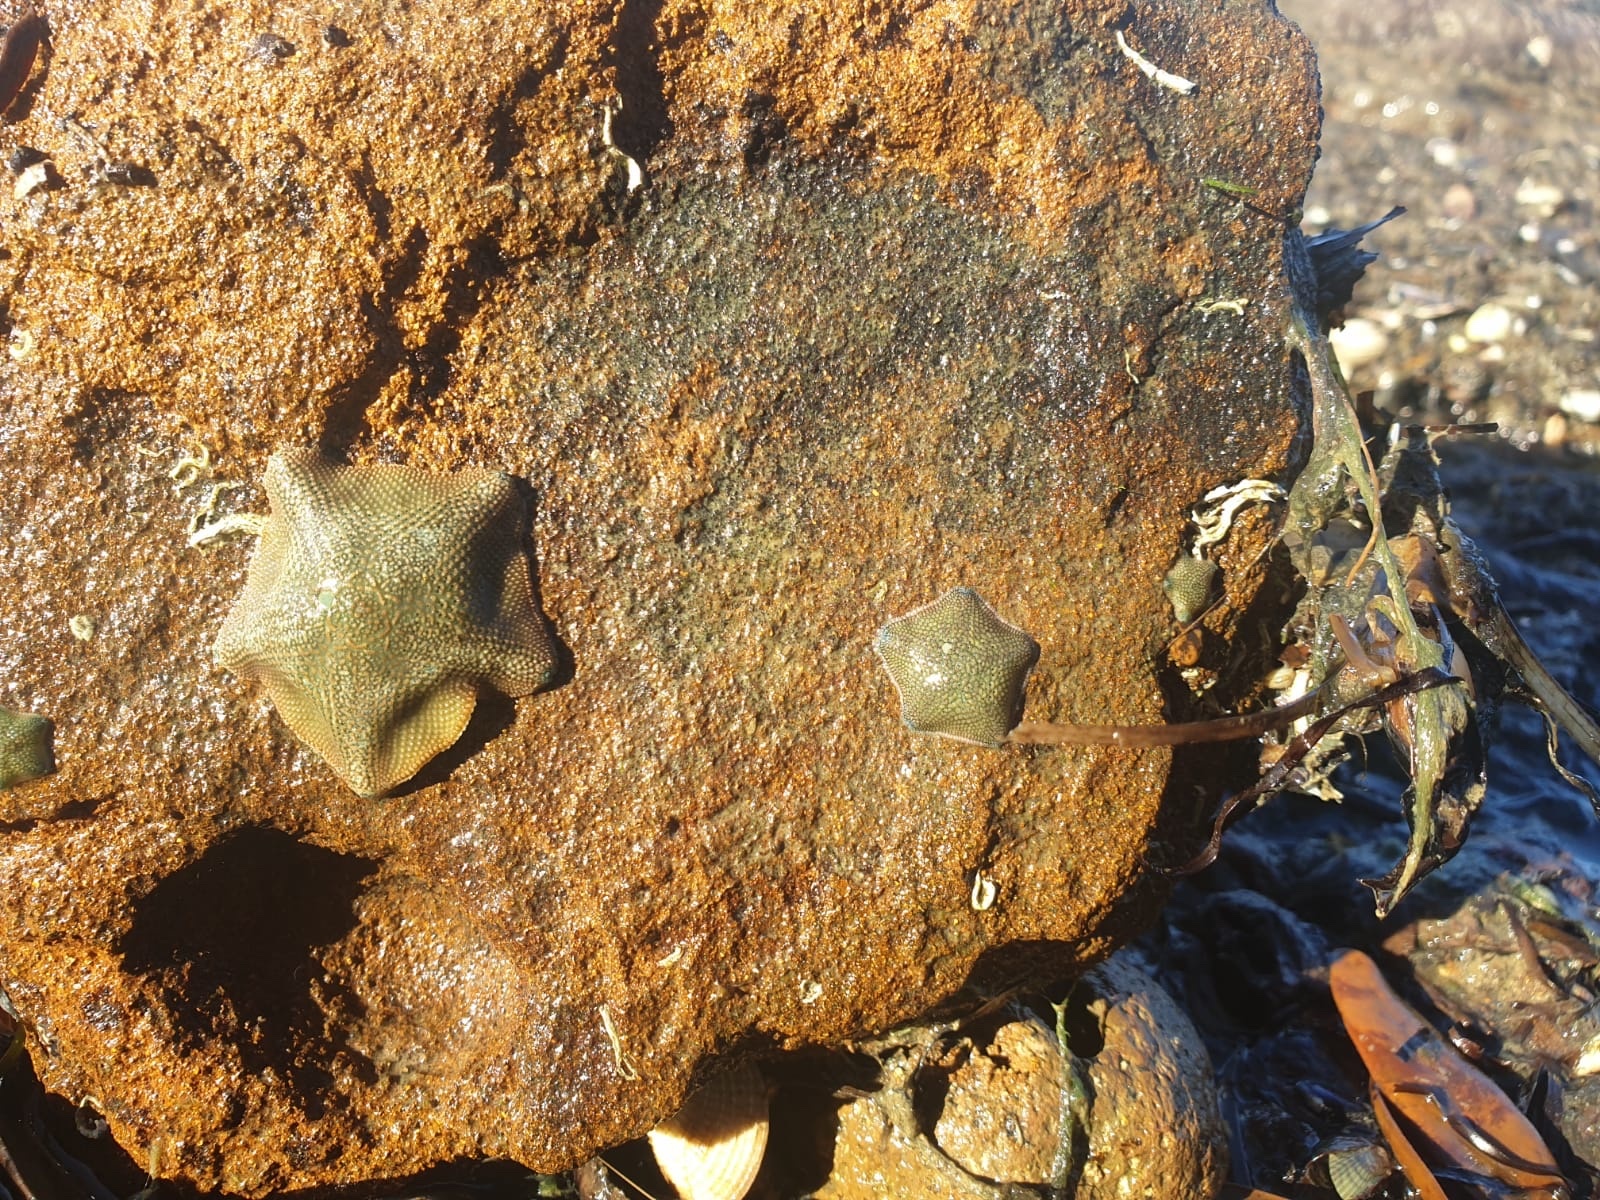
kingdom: Animalia
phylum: Echinodermata
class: Asteroidea
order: Valvatida
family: Asterinidae
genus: Patiriella
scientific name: Patiriella regularis
